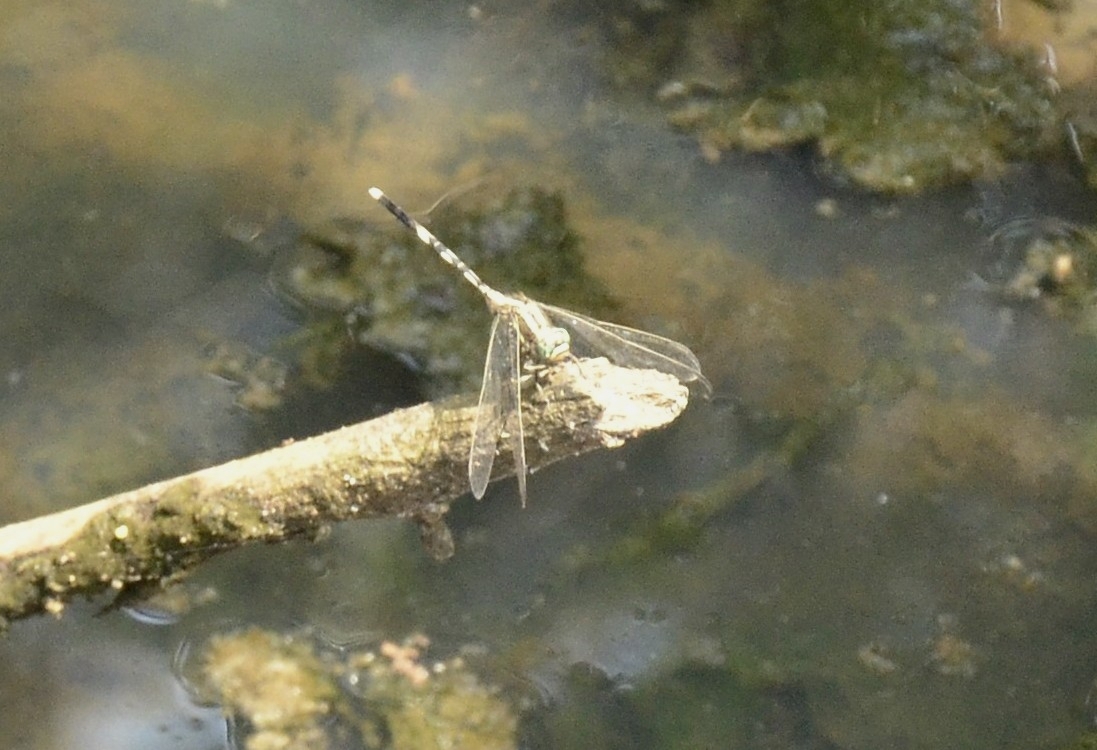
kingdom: Animalia
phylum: Arthropoda
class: Insecta
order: Odonata
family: Libellulidae
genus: Orthetrum
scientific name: Orthetrum sabina
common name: Slender skimmer
